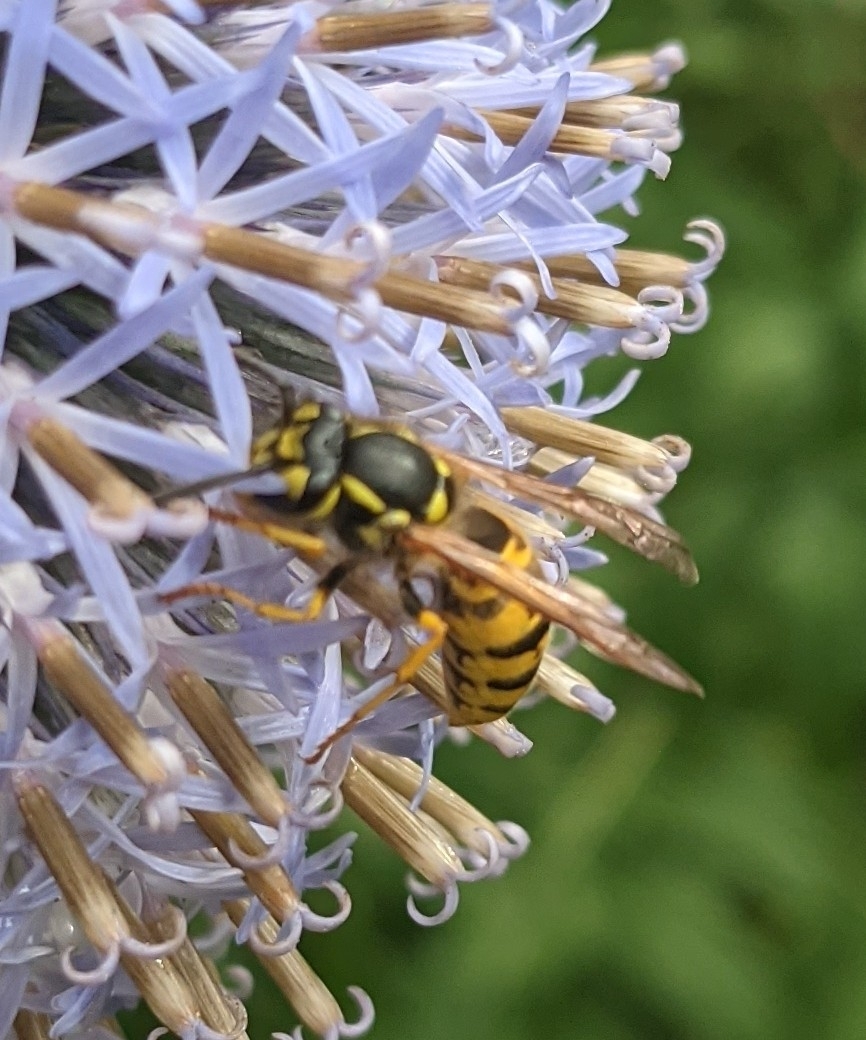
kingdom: Animalia
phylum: Arthropoda
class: Insecta
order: Hymenoptera
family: Vespidae
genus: Vespula
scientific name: Vespula germanica
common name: German wasp
